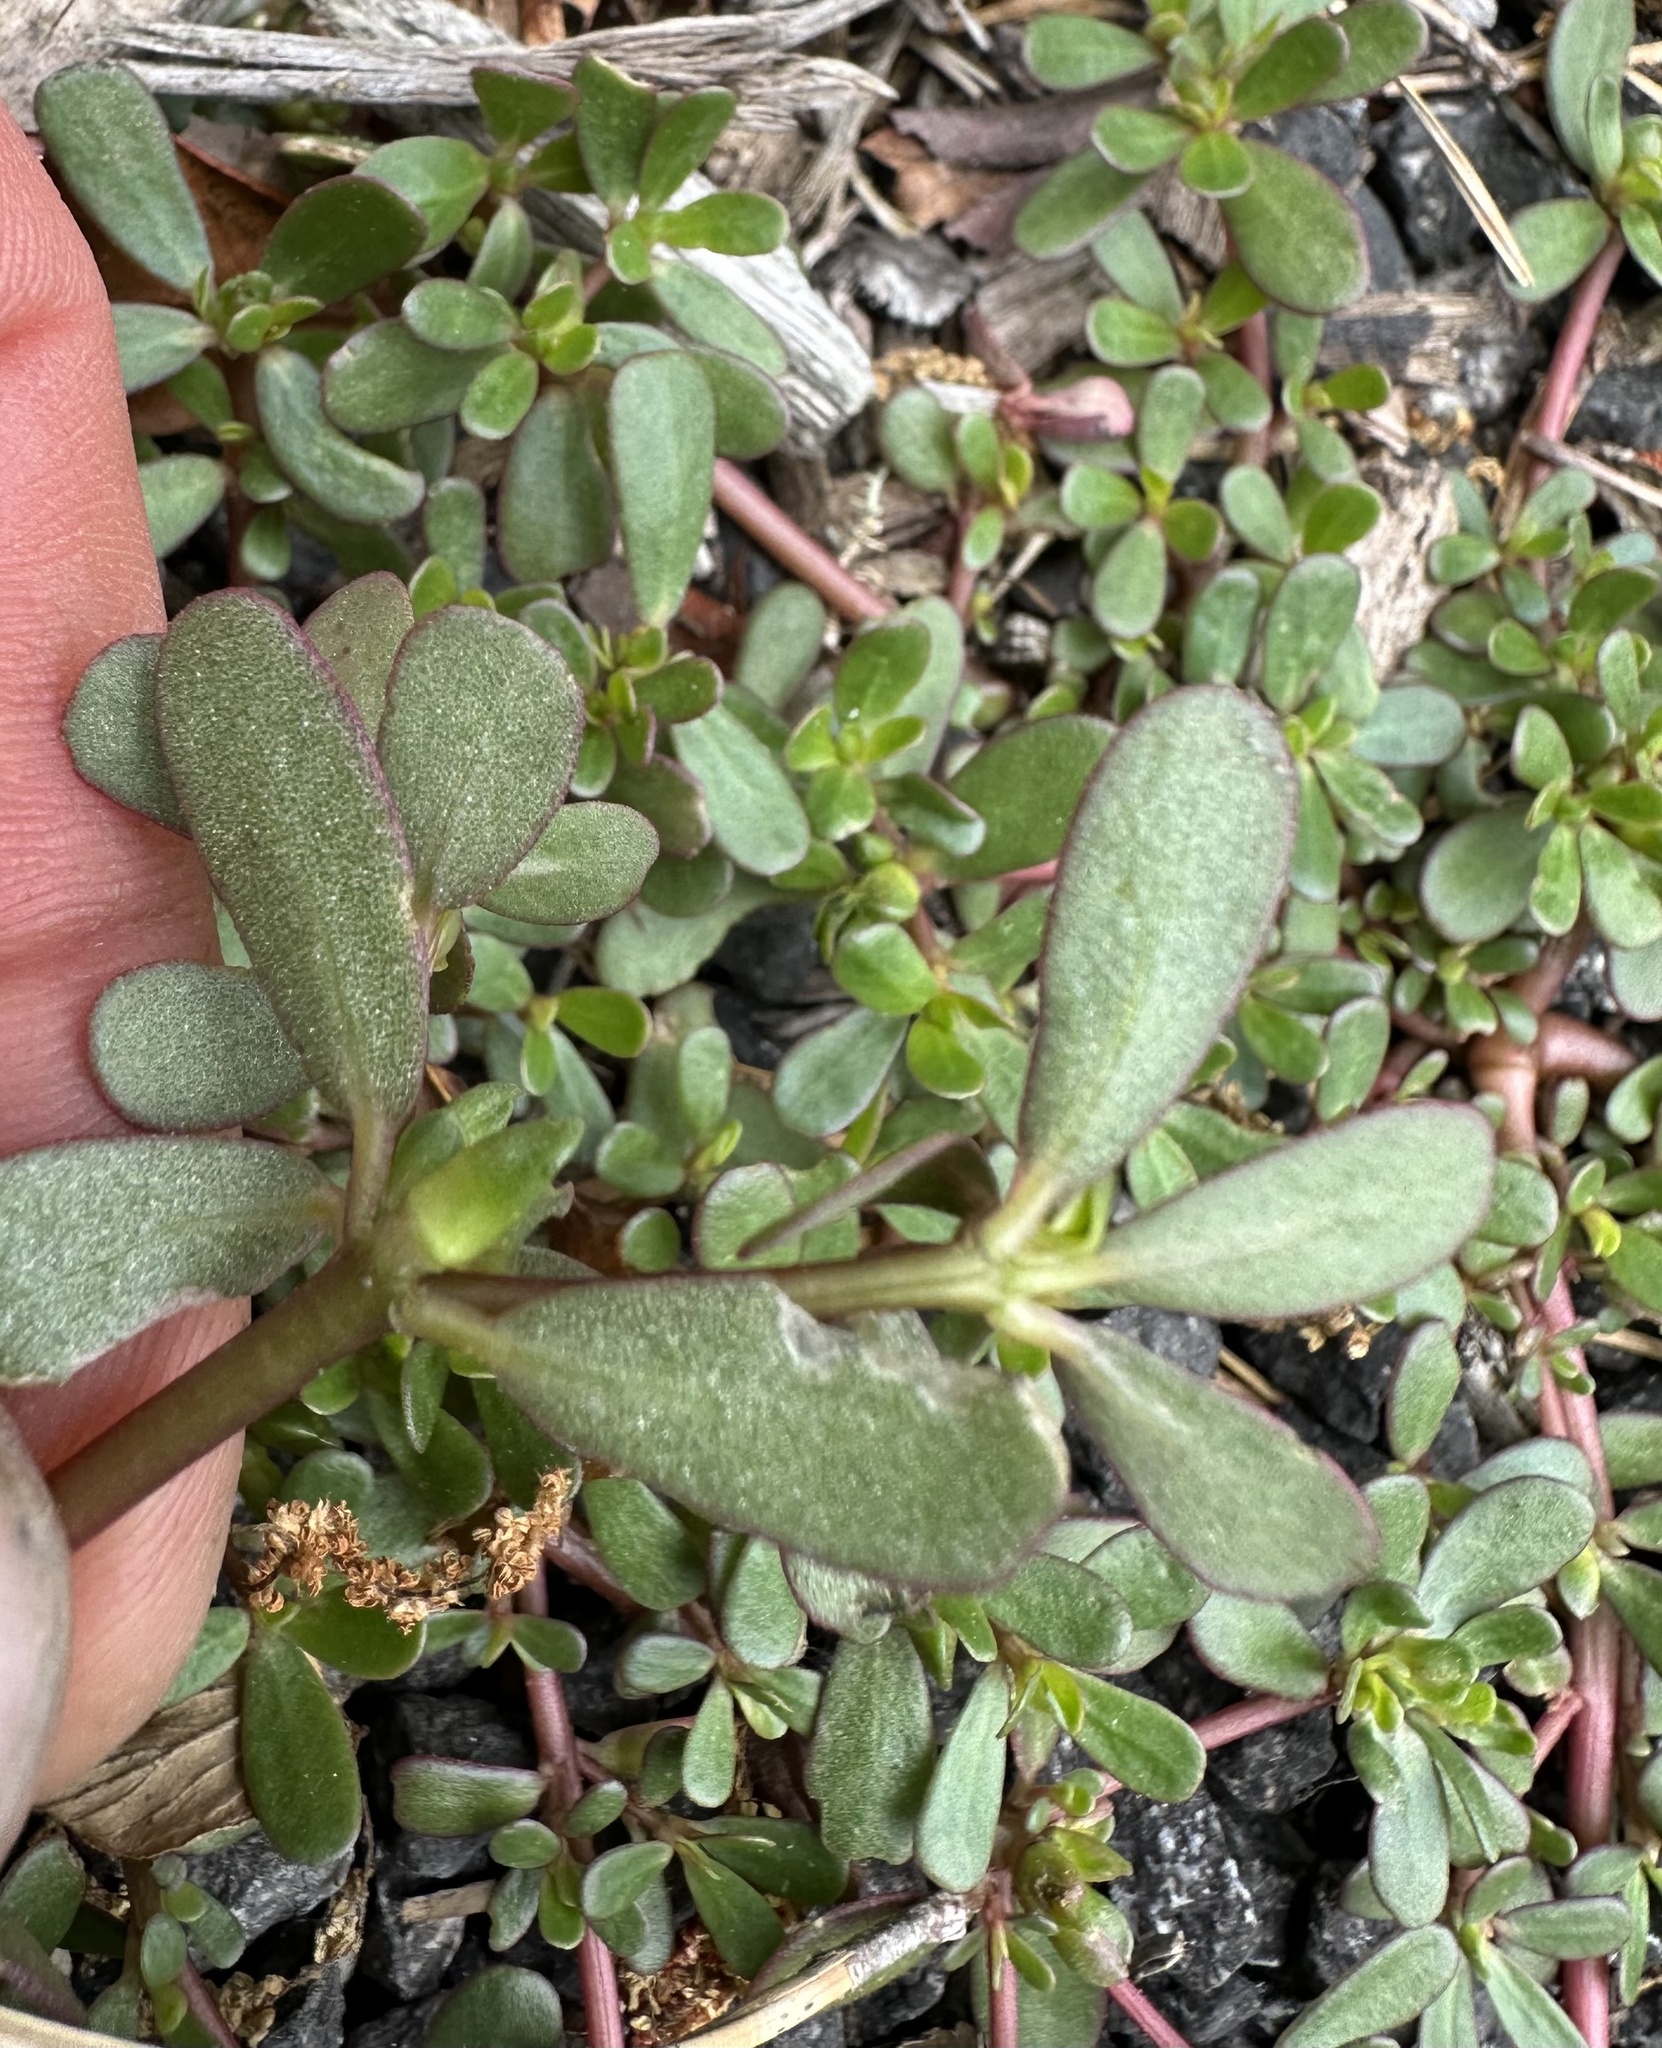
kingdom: Plantae
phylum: Tracheophyta
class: Magnoliopsida
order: Caryophyllales
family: Portulacaceae
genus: Portulaca
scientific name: Portulaca oleracea
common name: Common purslane
